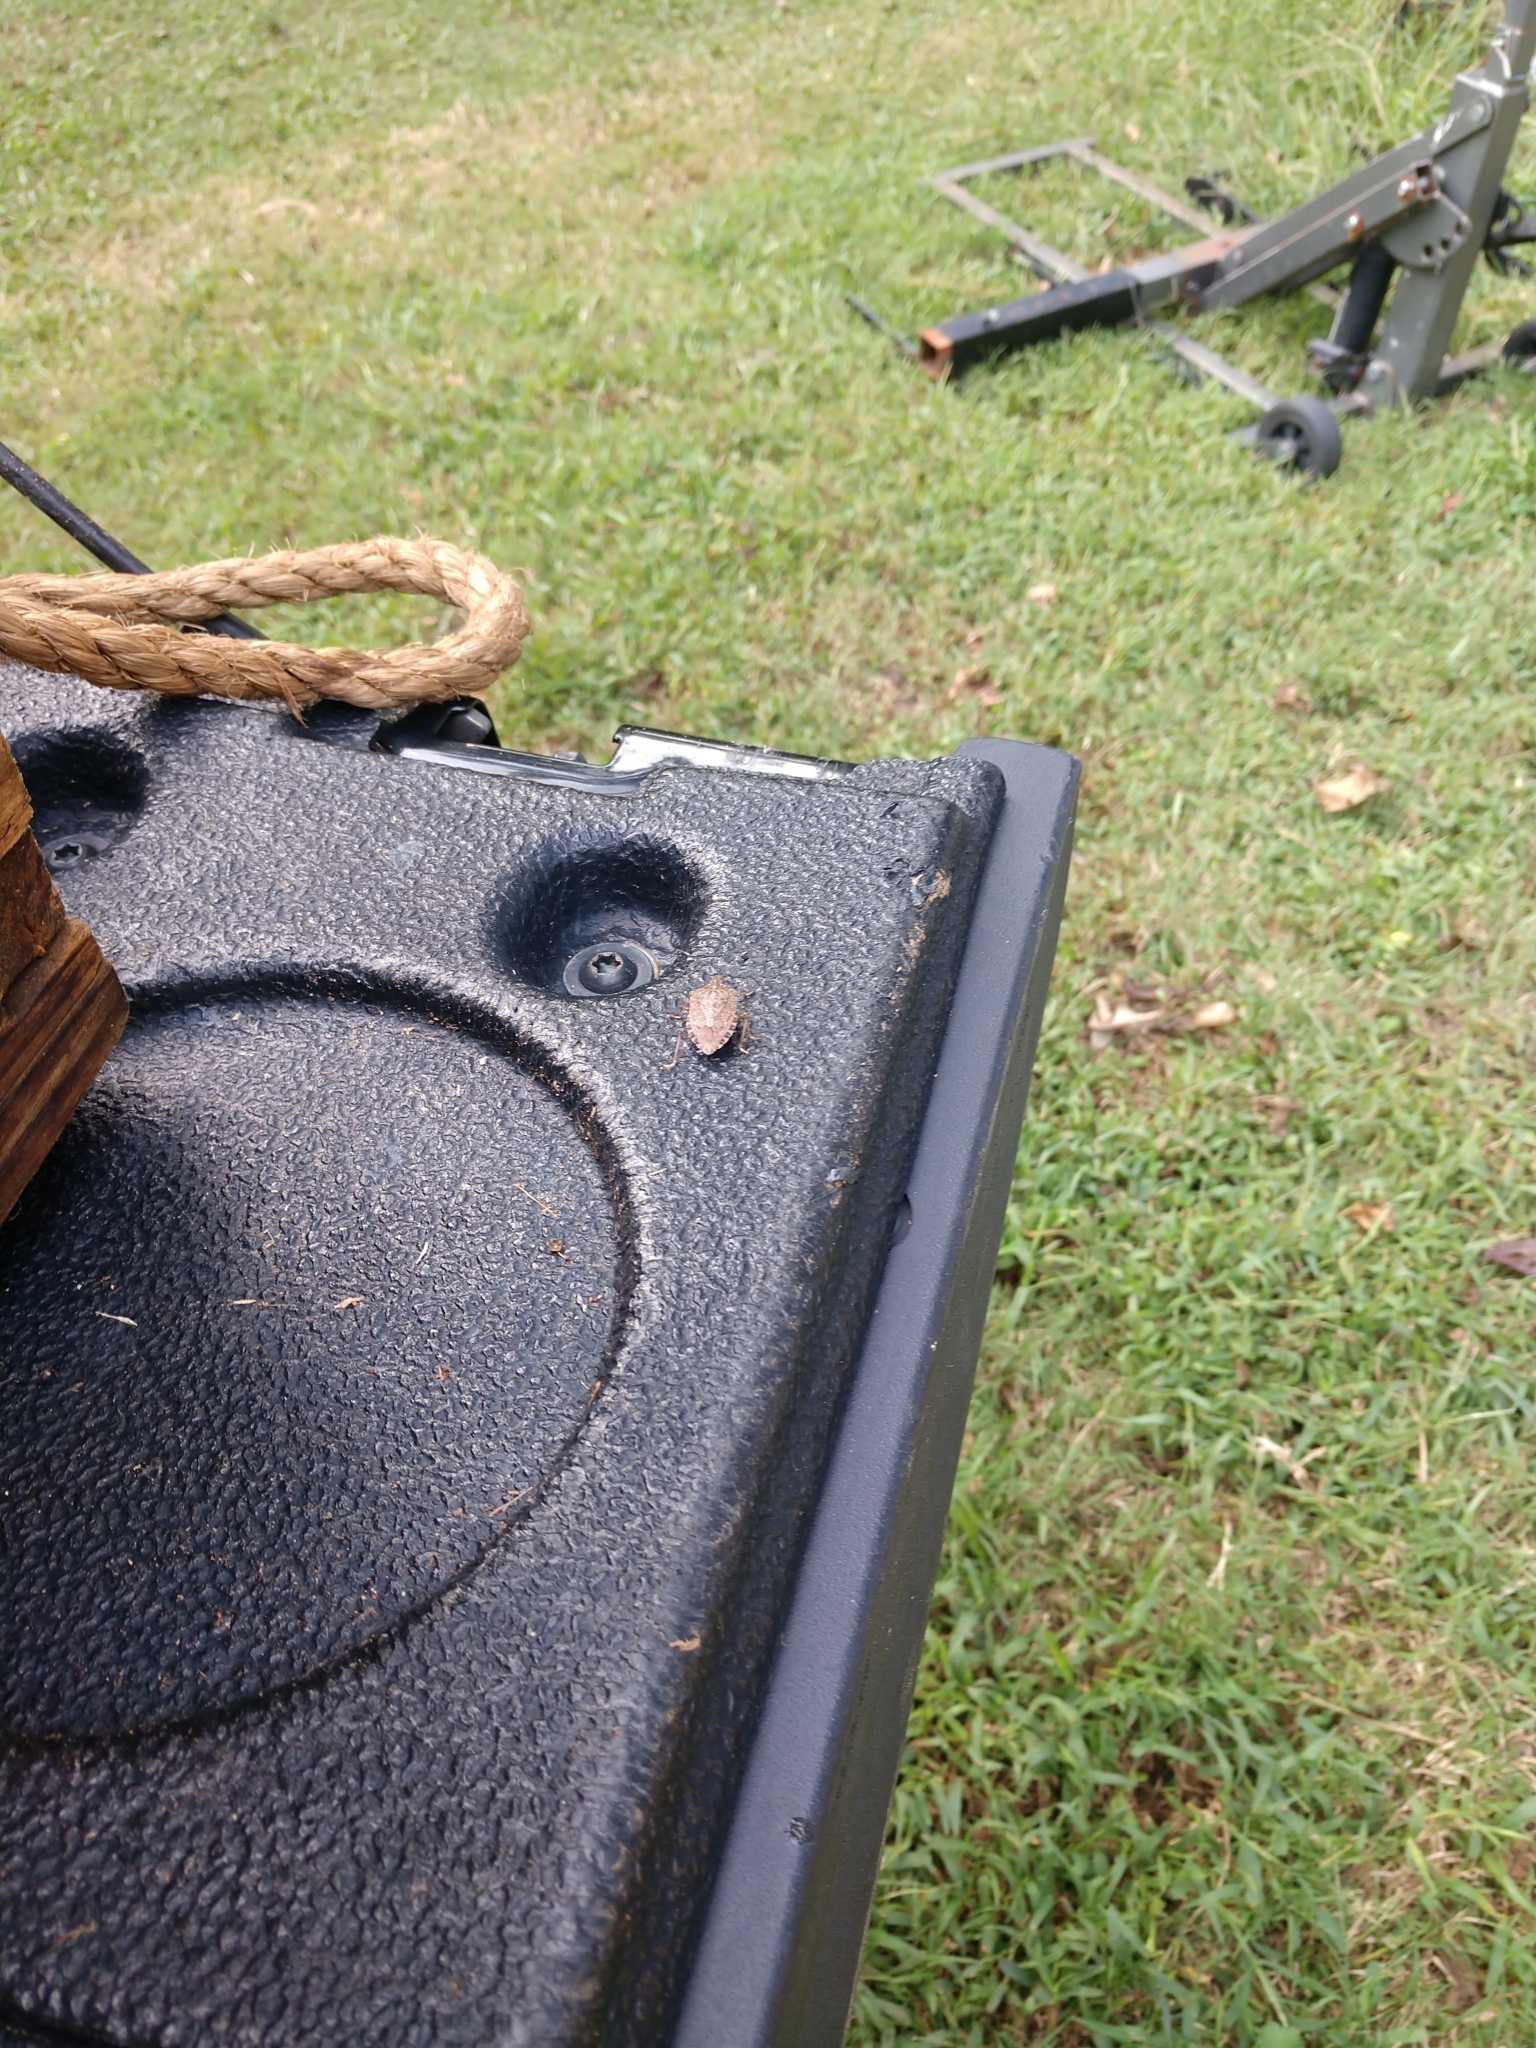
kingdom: Animalia
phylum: Arthropoda
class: Insecta
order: Hemiptera
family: Pentatomidae
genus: Halyomorpha
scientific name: Halyomorpha halys
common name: Brown marmorated stink bug
